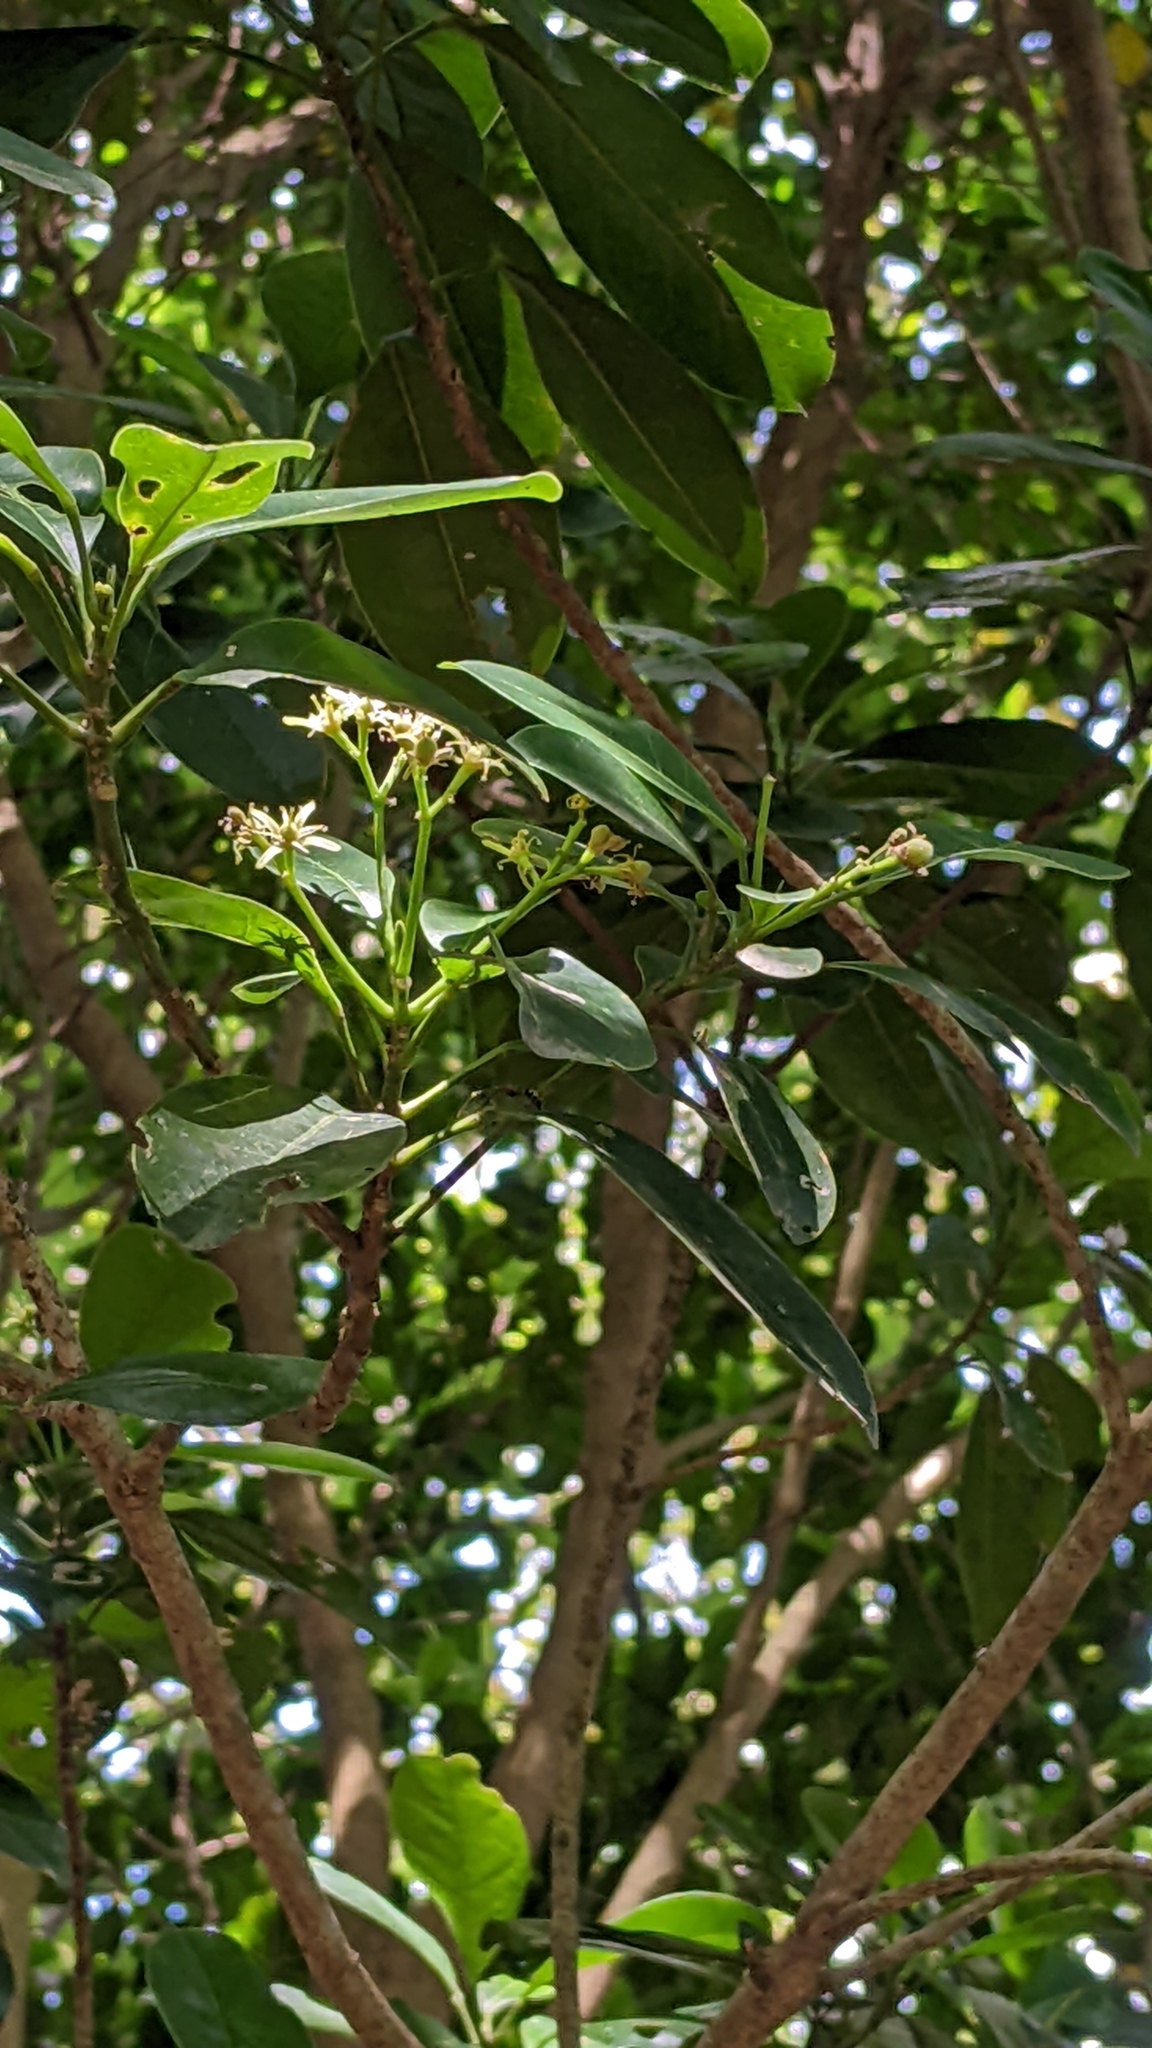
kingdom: Plantae
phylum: Tracheophyta
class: Magnoliopsida
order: Sapindales
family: Rutaceae
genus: Acronychia
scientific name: Acronychia pedunculata
